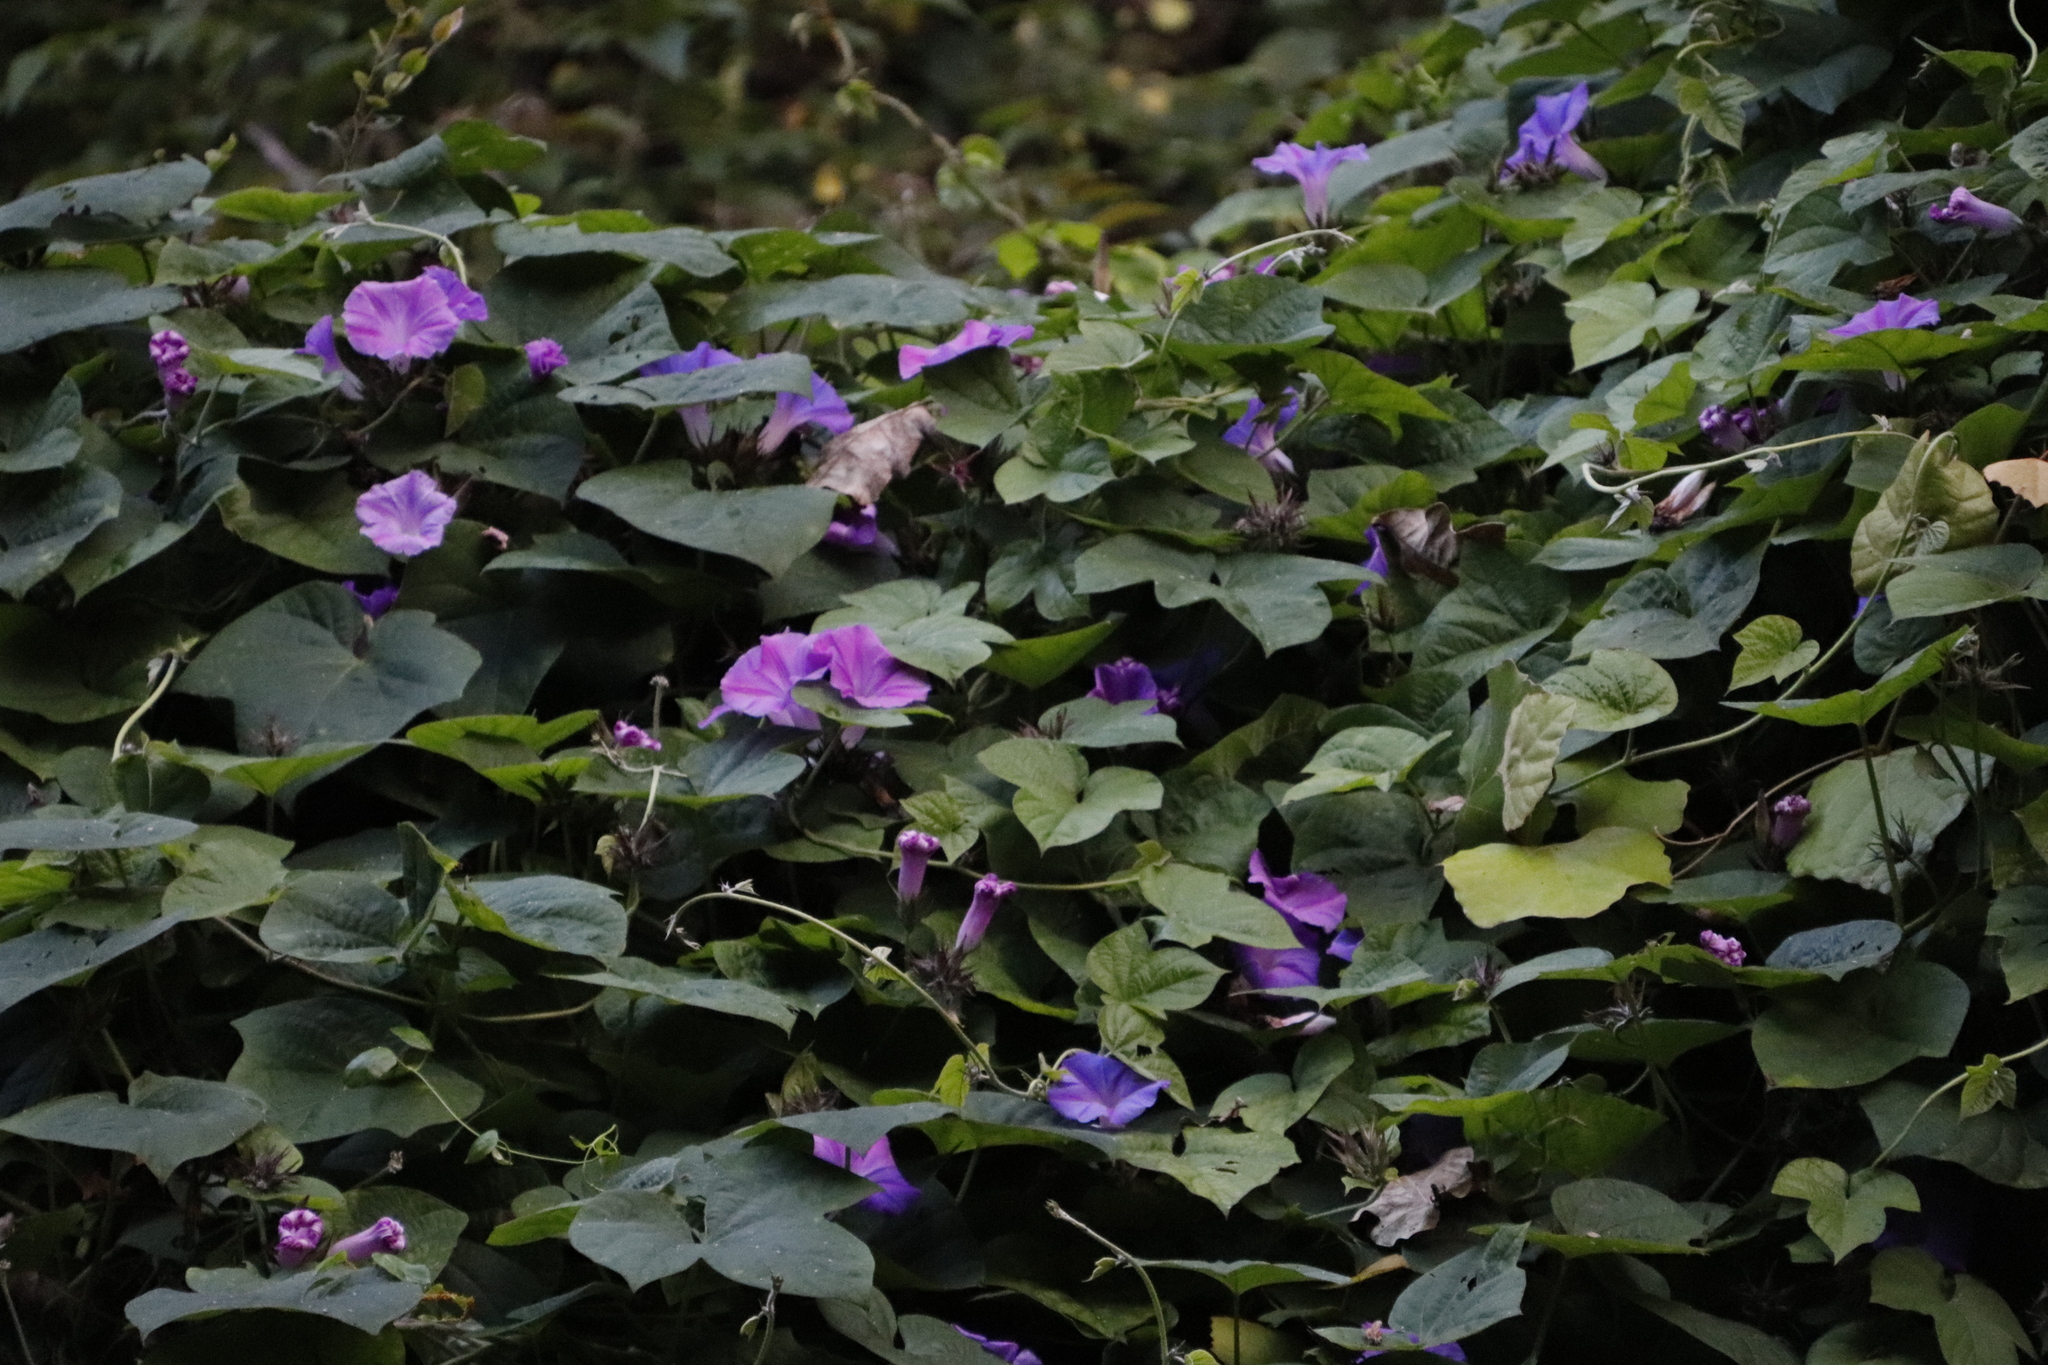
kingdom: Plantae
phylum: Tracheophyta
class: Magnoliopsida
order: Solanales
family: Convolvulaceae
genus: Ipomoea
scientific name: Ipomoea indica
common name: Blue dawnflower
